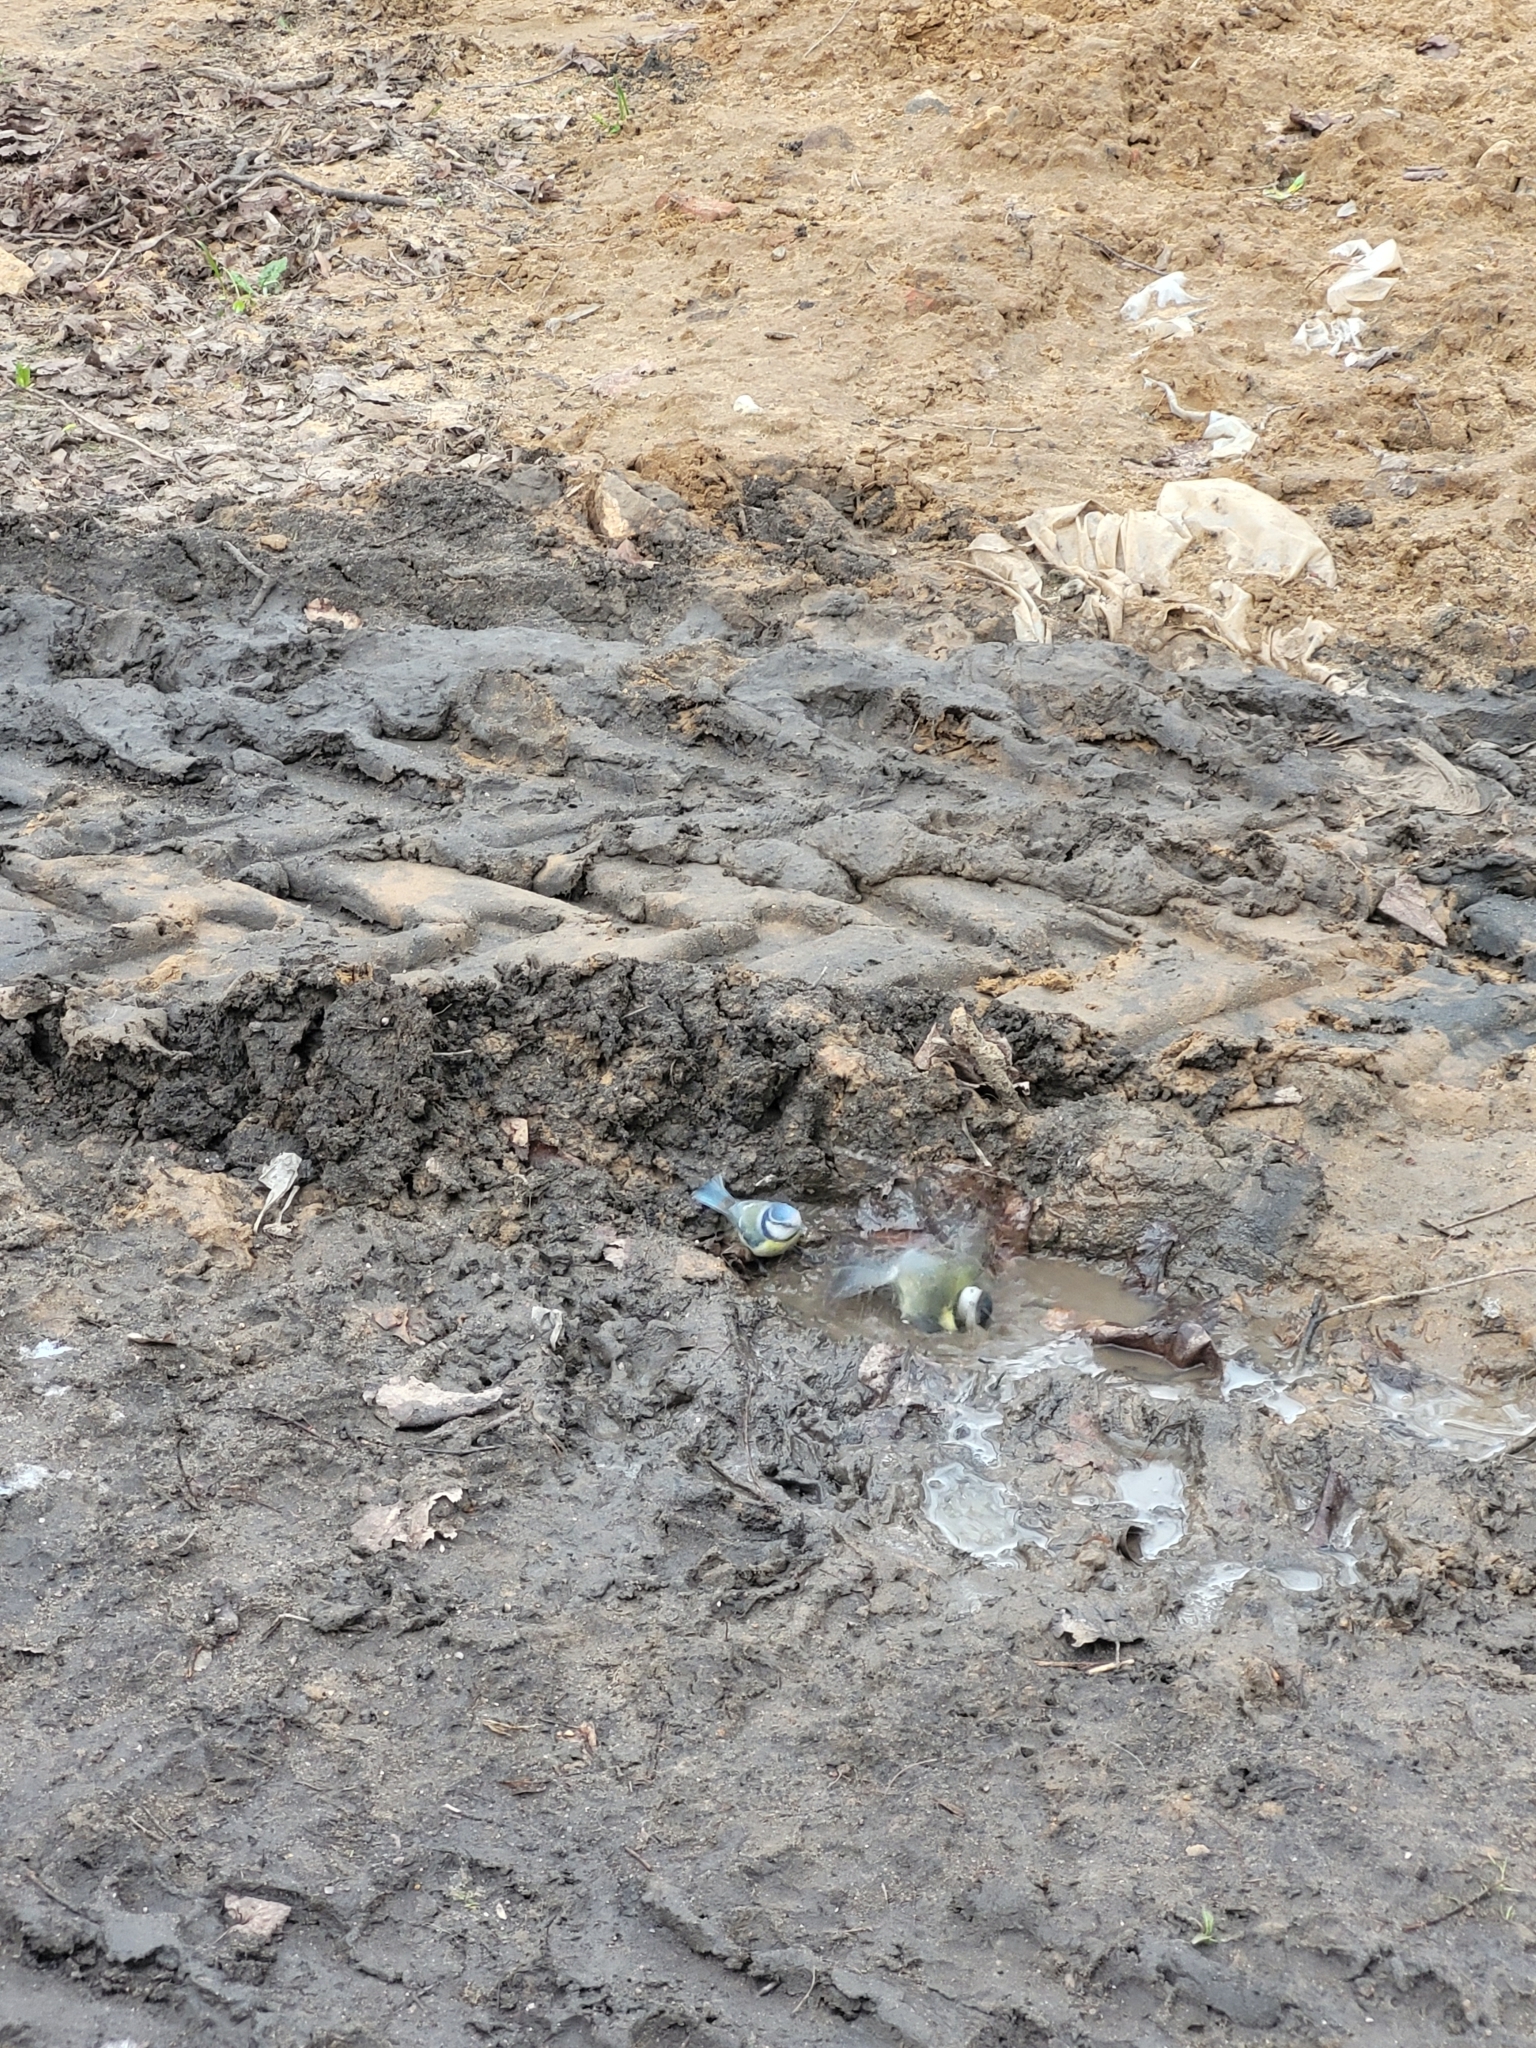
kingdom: Animalia
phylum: Chordata
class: Aves
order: Passeriformes
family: Paridae
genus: Cyanistes
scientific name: Cyanistes caeruleus
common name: Eurasian blue tit
